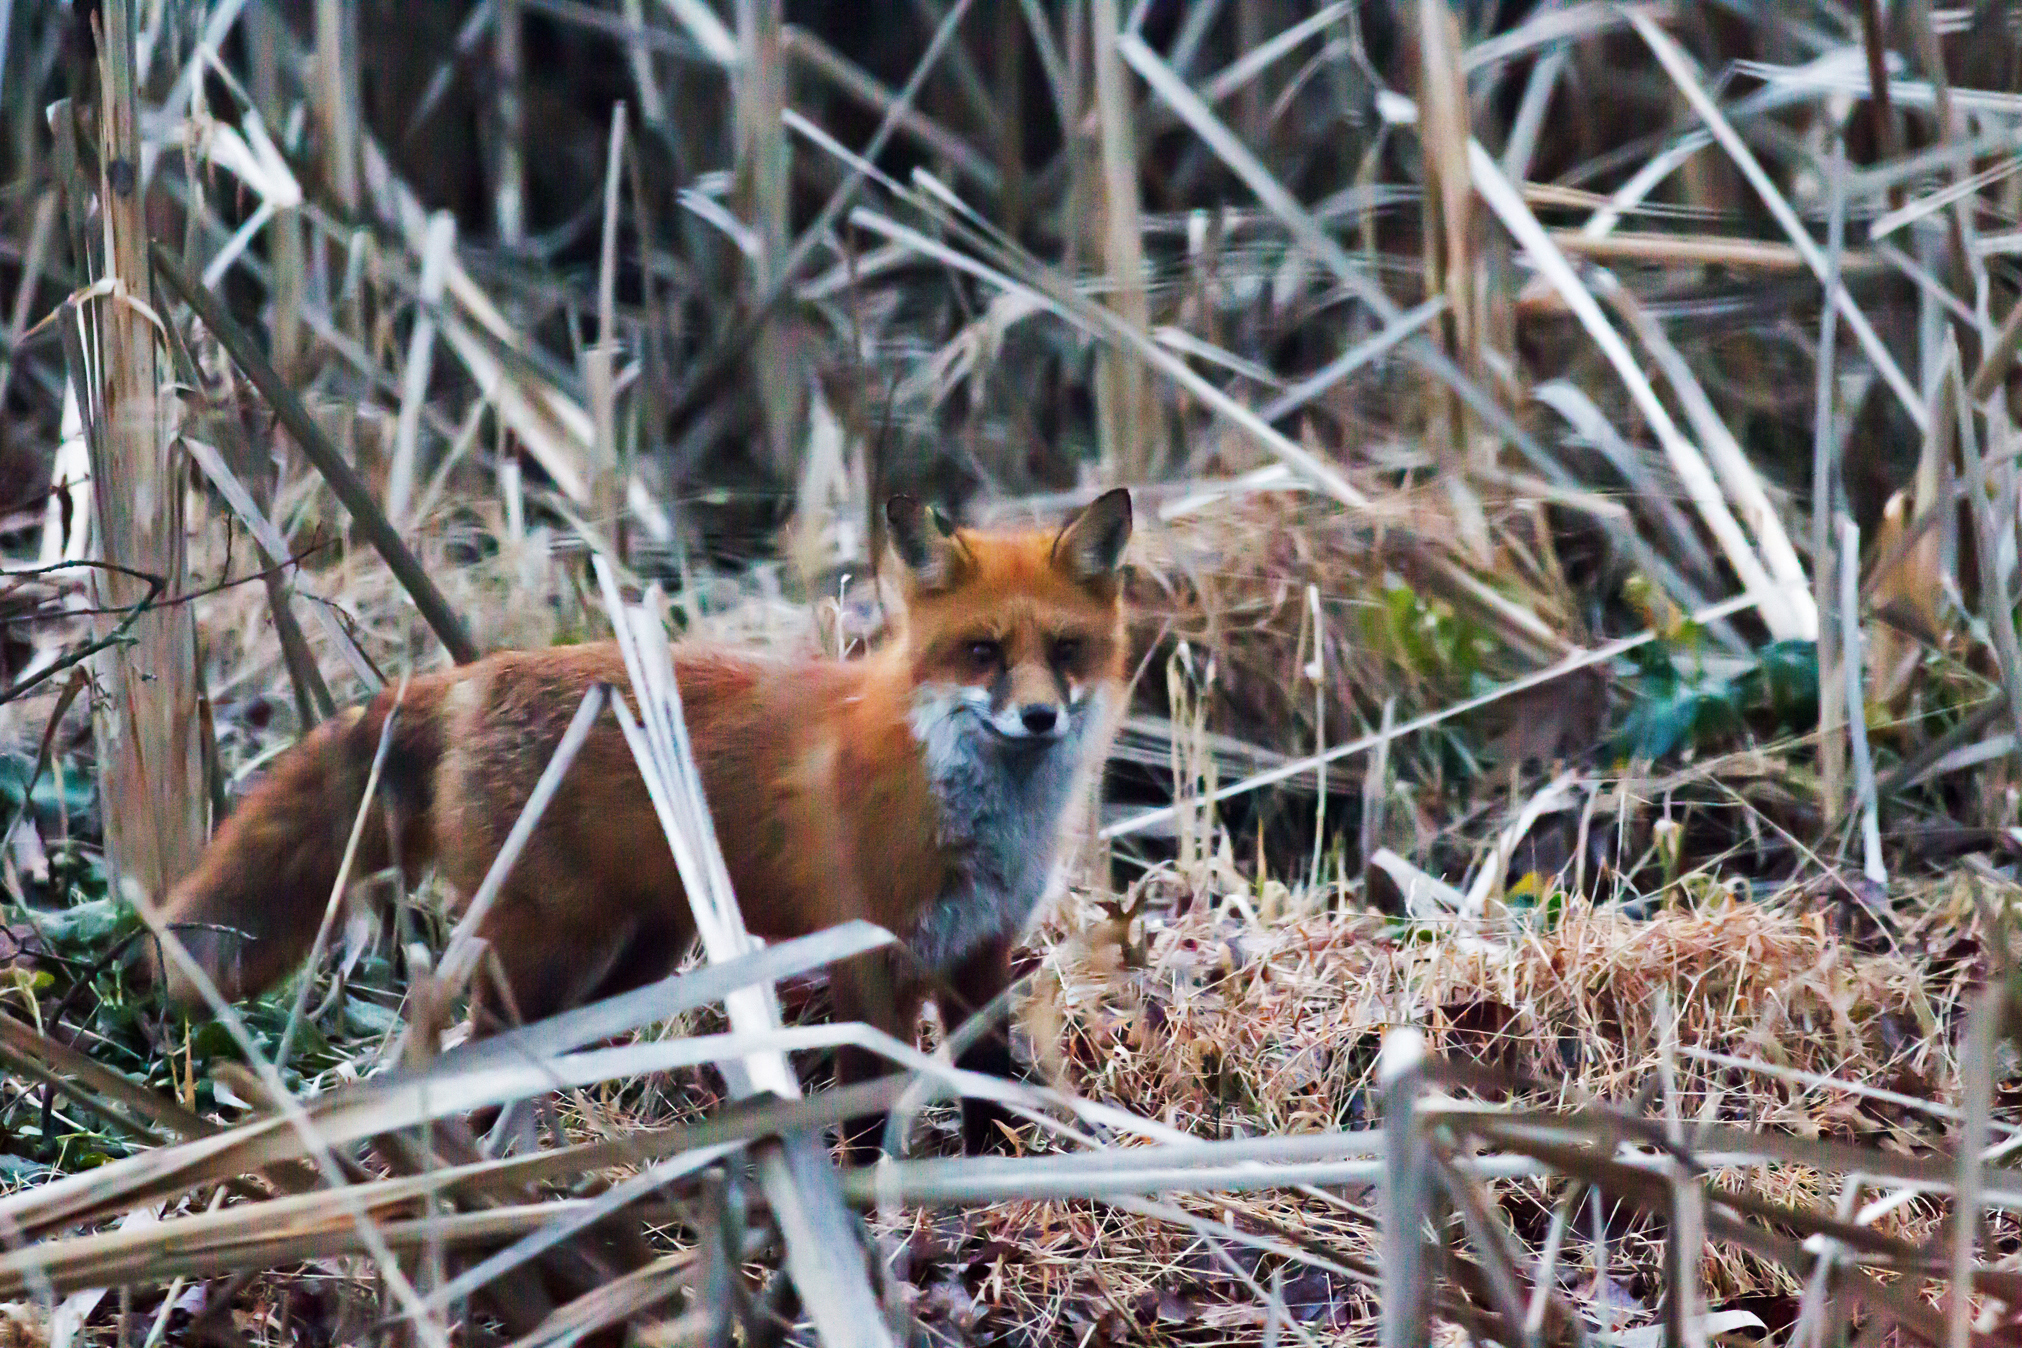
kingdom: Animalia
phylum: Chordata
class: Mammalia
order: Carnivora
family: Canidae
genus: Vulpes
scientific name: Vulpes vulpes
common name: Red fox
